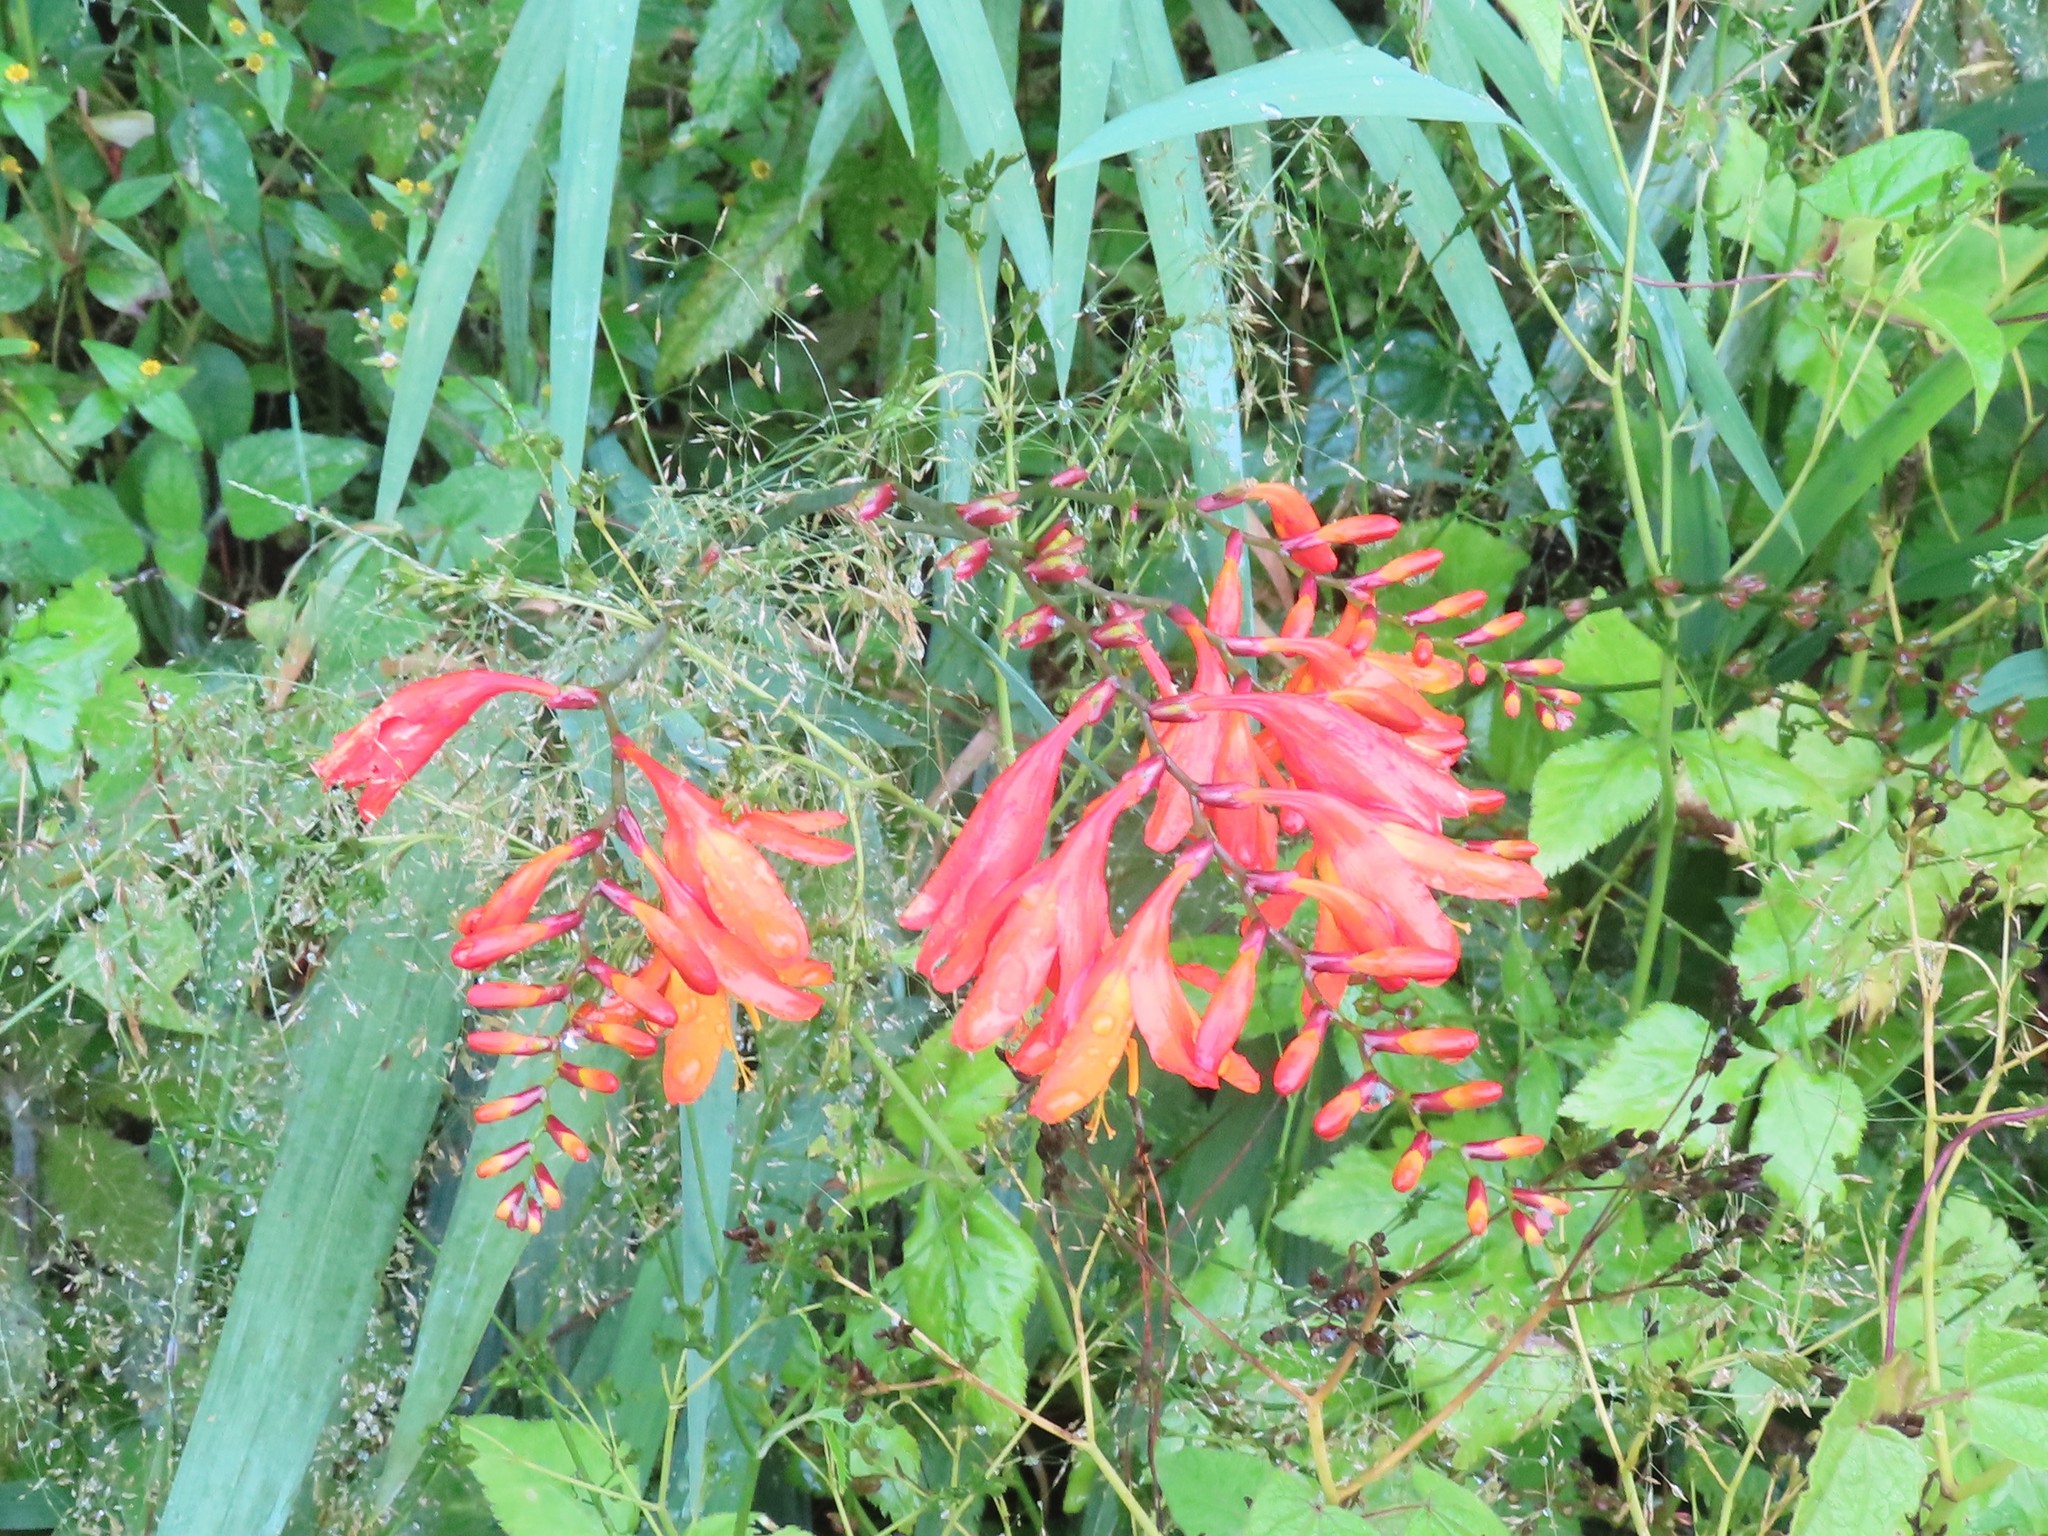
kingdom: Plantae
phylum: Tracheophyta
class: Liliopsida
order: Asparagales
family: Iridaceae
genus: Crocosmia
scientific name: Crocosmia crocosmiiflora
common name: Montbretia
